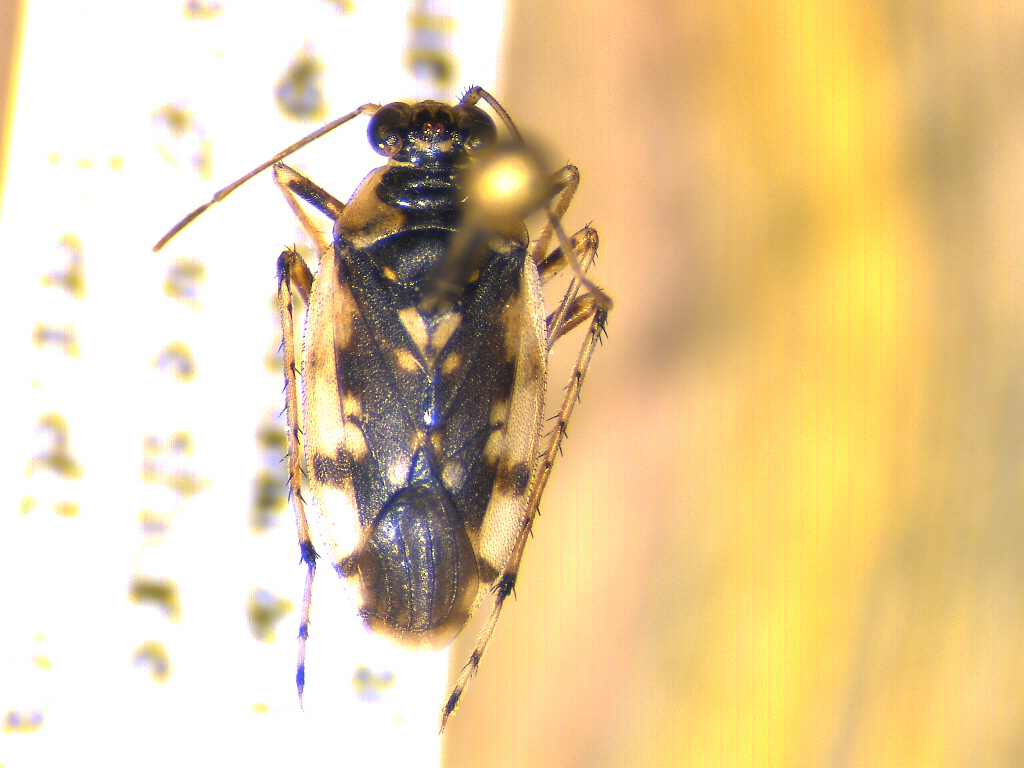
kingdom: Animalia
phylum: Arthropoda
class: Insecta
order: Hemiptera
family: Saldidae
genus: Pentacora
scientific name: Pentacora signoreti
